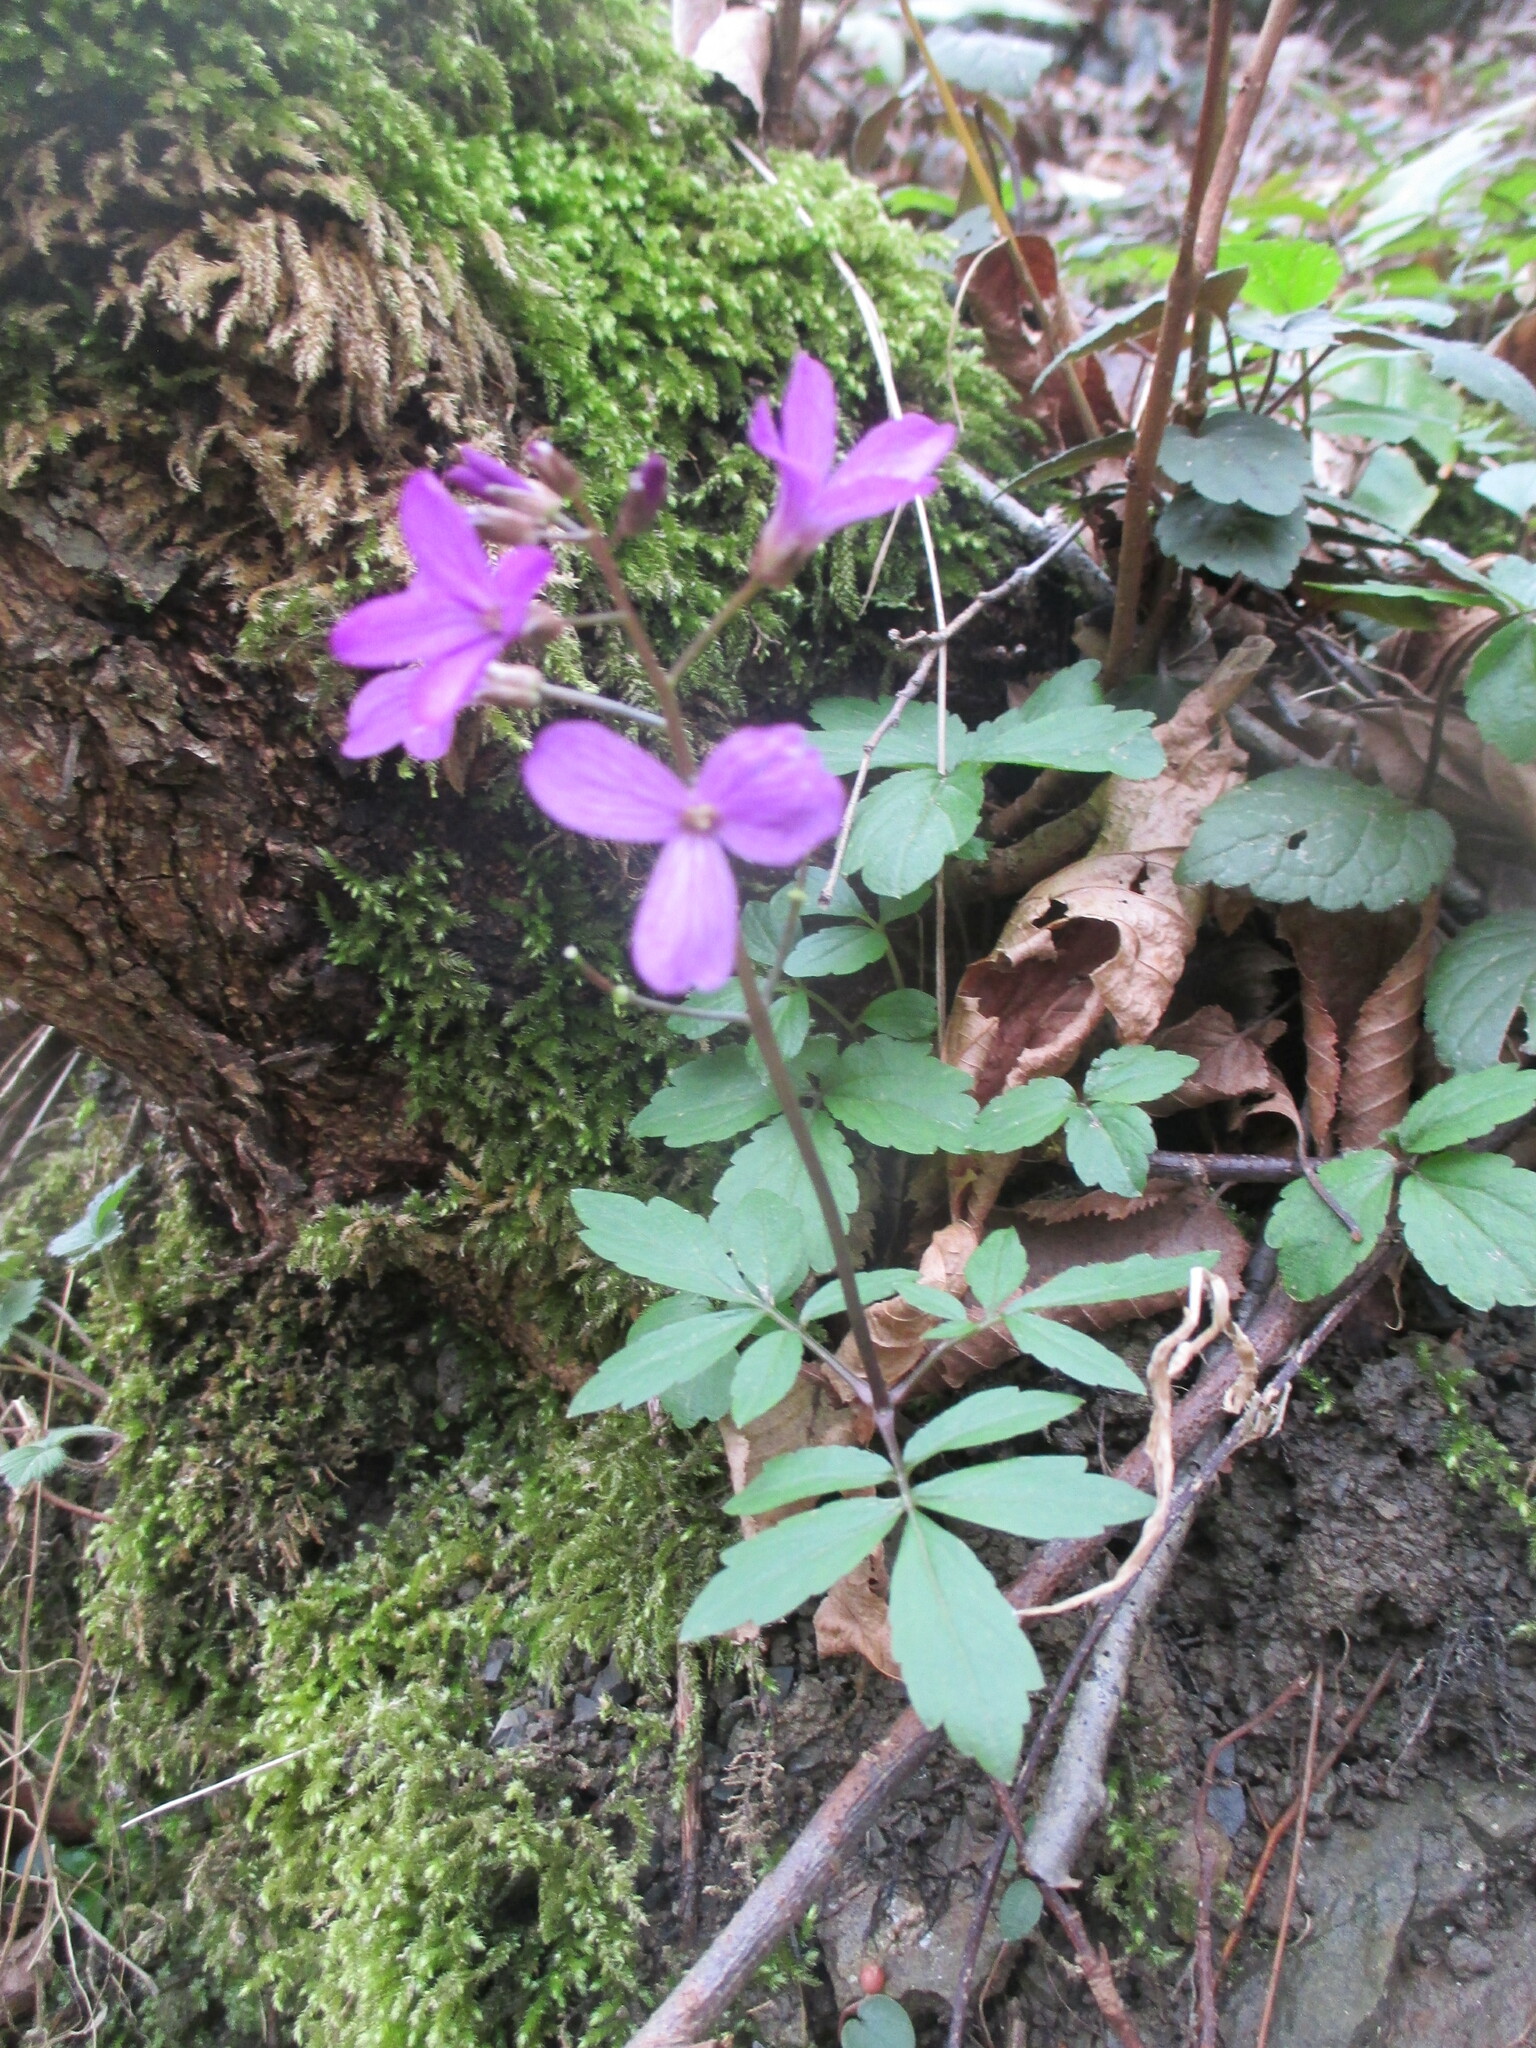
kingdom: Plantae
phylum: Tracheophyta
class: Magnoliopsida
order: Brassicales
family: Brassicaceae
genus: Cardamine
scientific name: Cardamine quinquefolia
